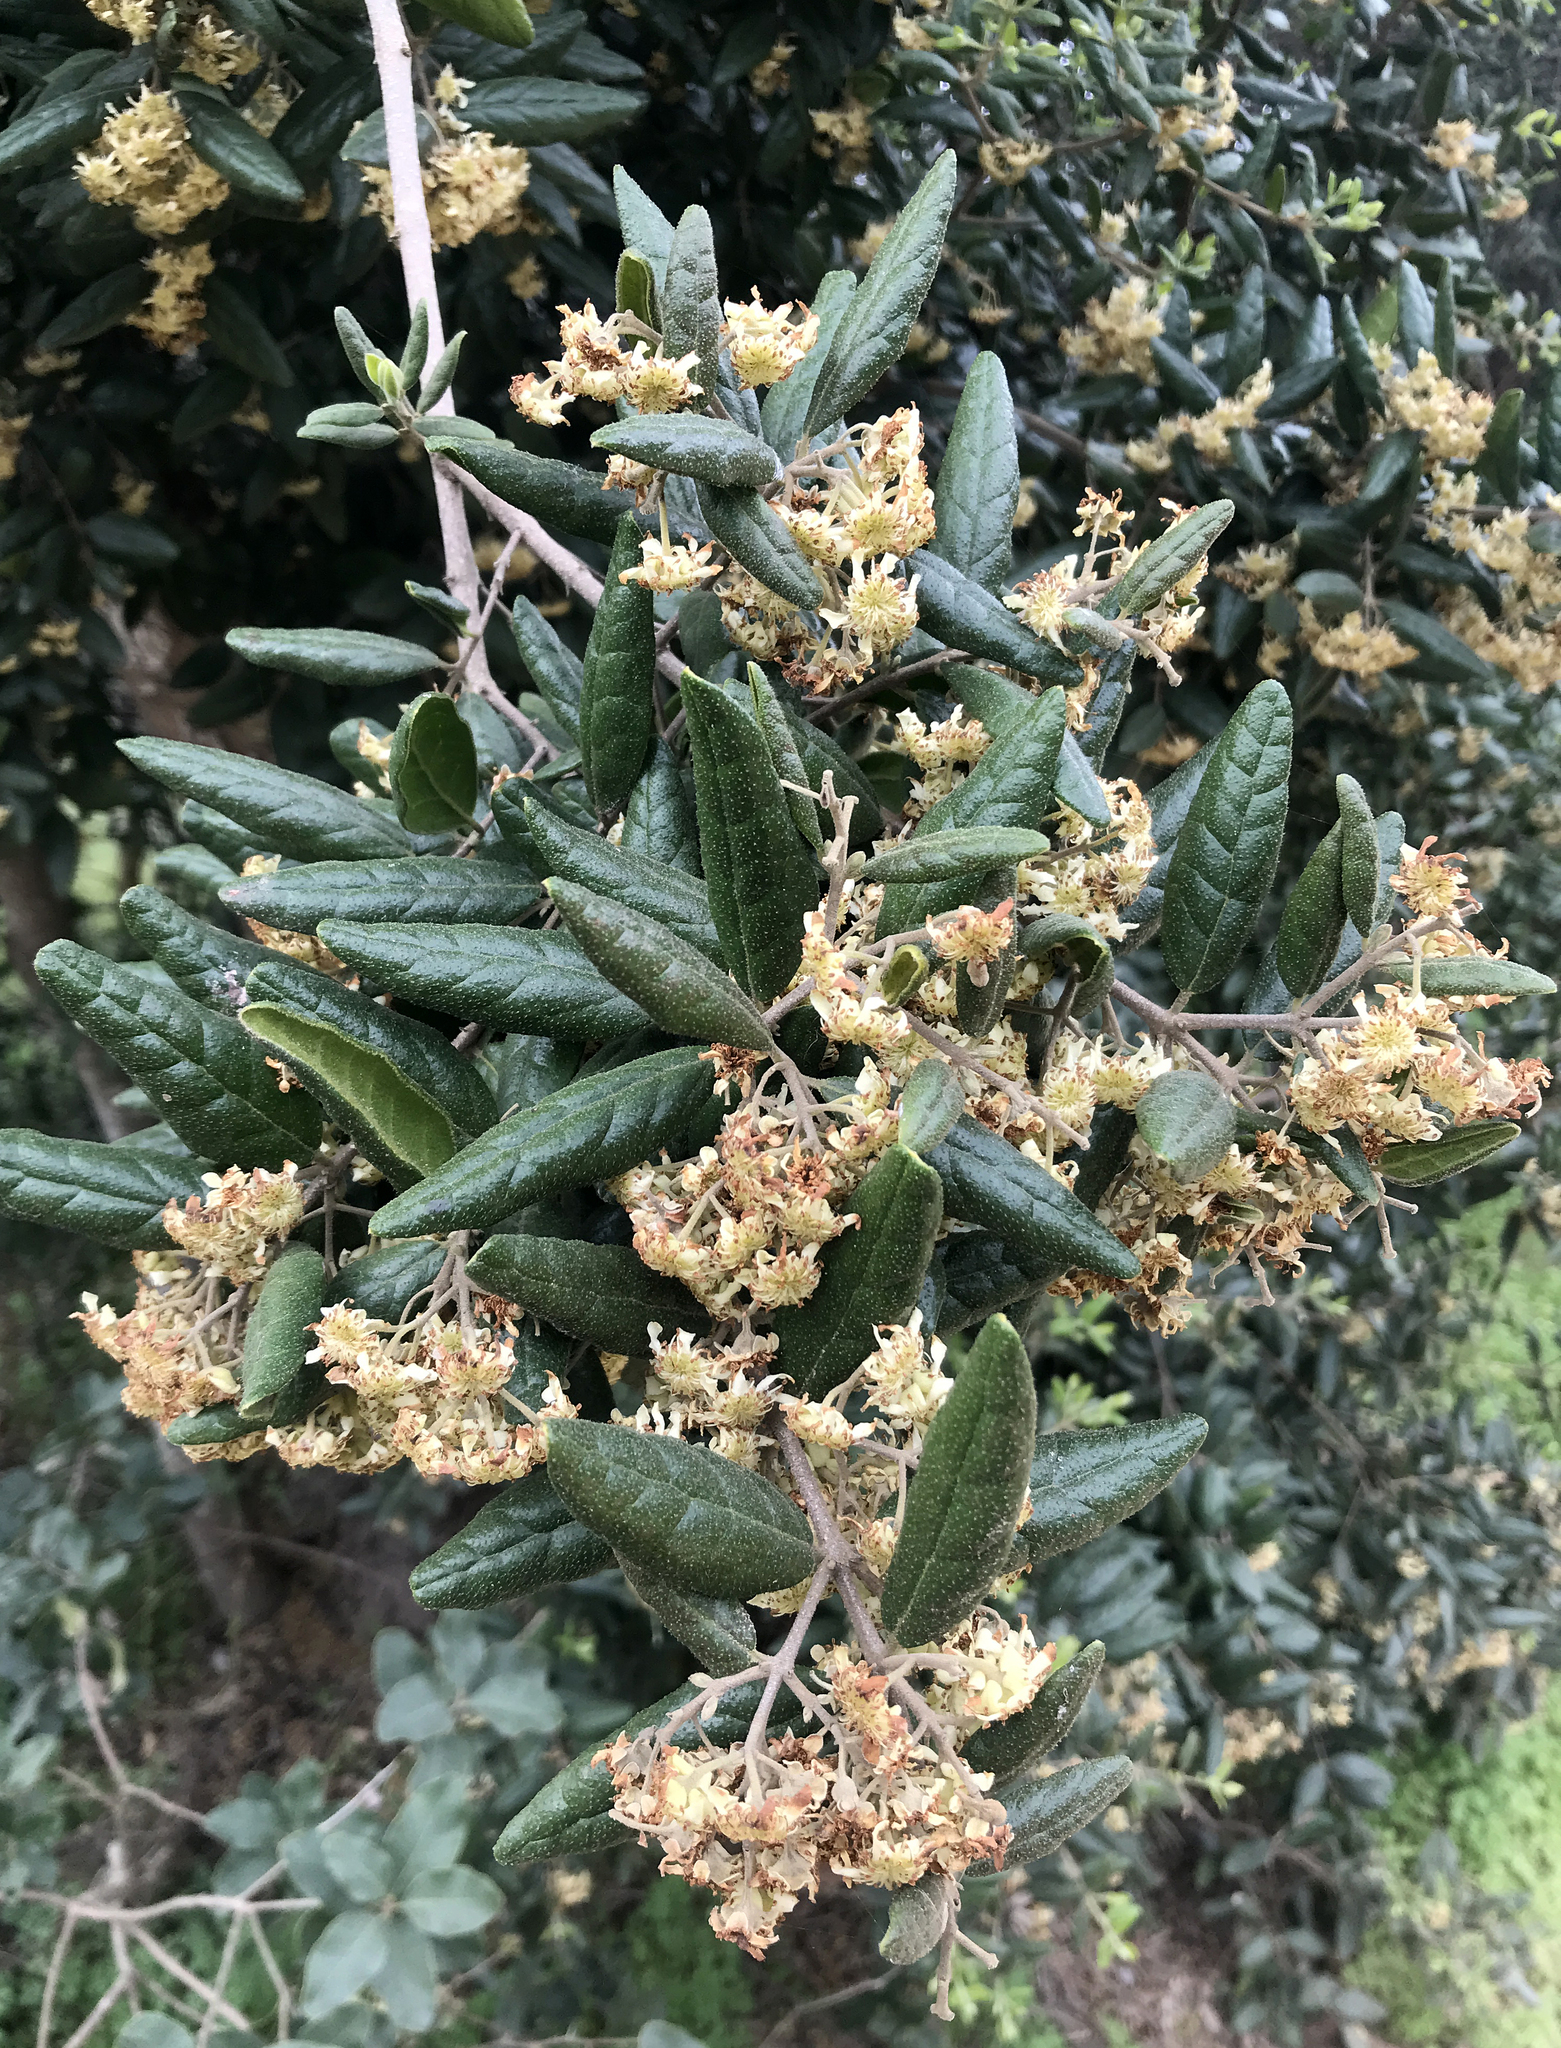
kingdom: Plantae
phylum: Tracheophyta
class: Magnoliopsida
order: Laurales
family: Monimiaceae
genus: Peumus
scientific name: Peumus boldus
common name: Boldo
